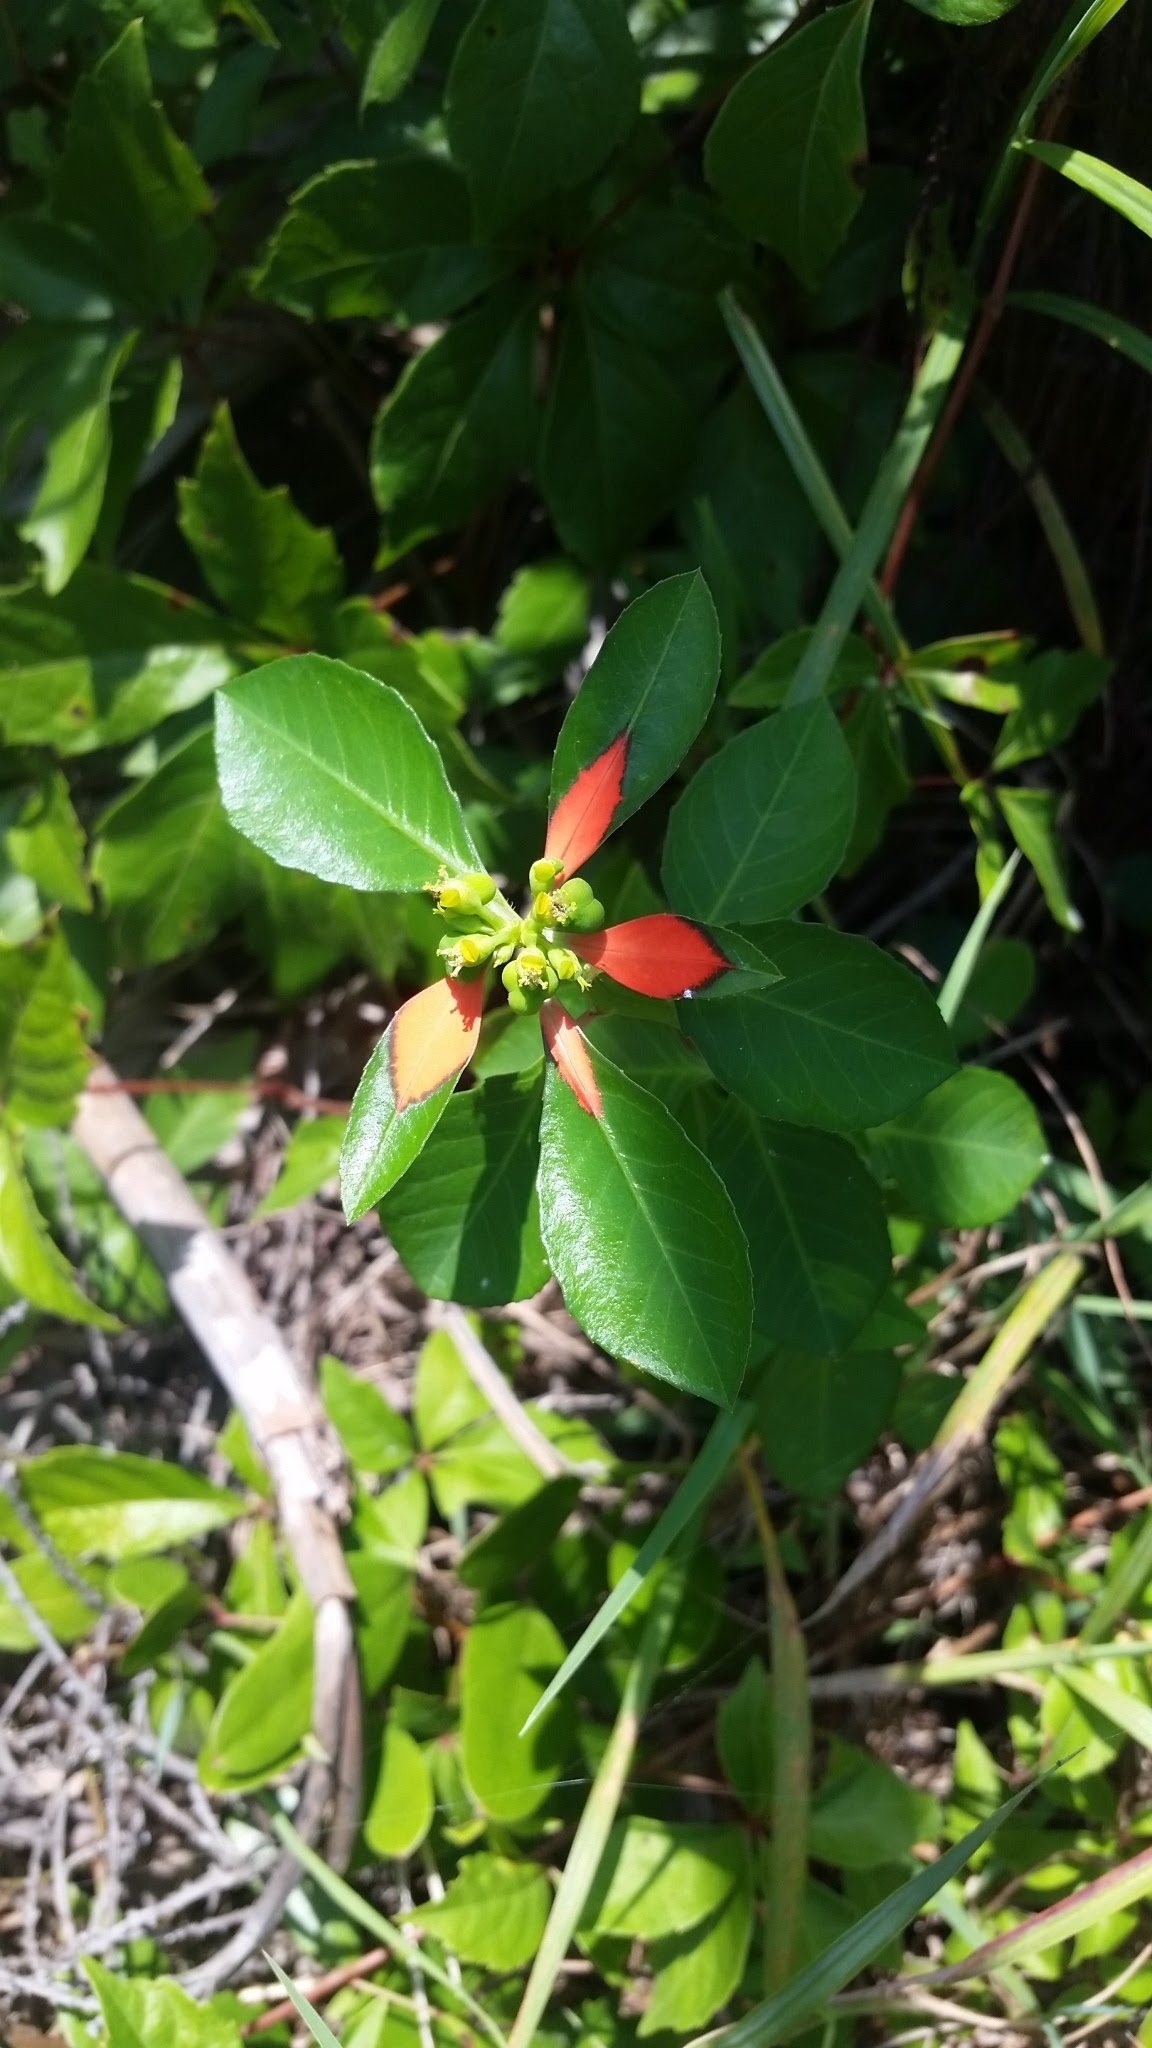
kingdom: Plantae
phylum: Tracheophyta
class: Magnoliopsida
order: Malpighiales
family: Euphorbiaceae
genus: Euphorbia
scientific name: Euphorbia heterophylla
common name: Mexican fireplant
